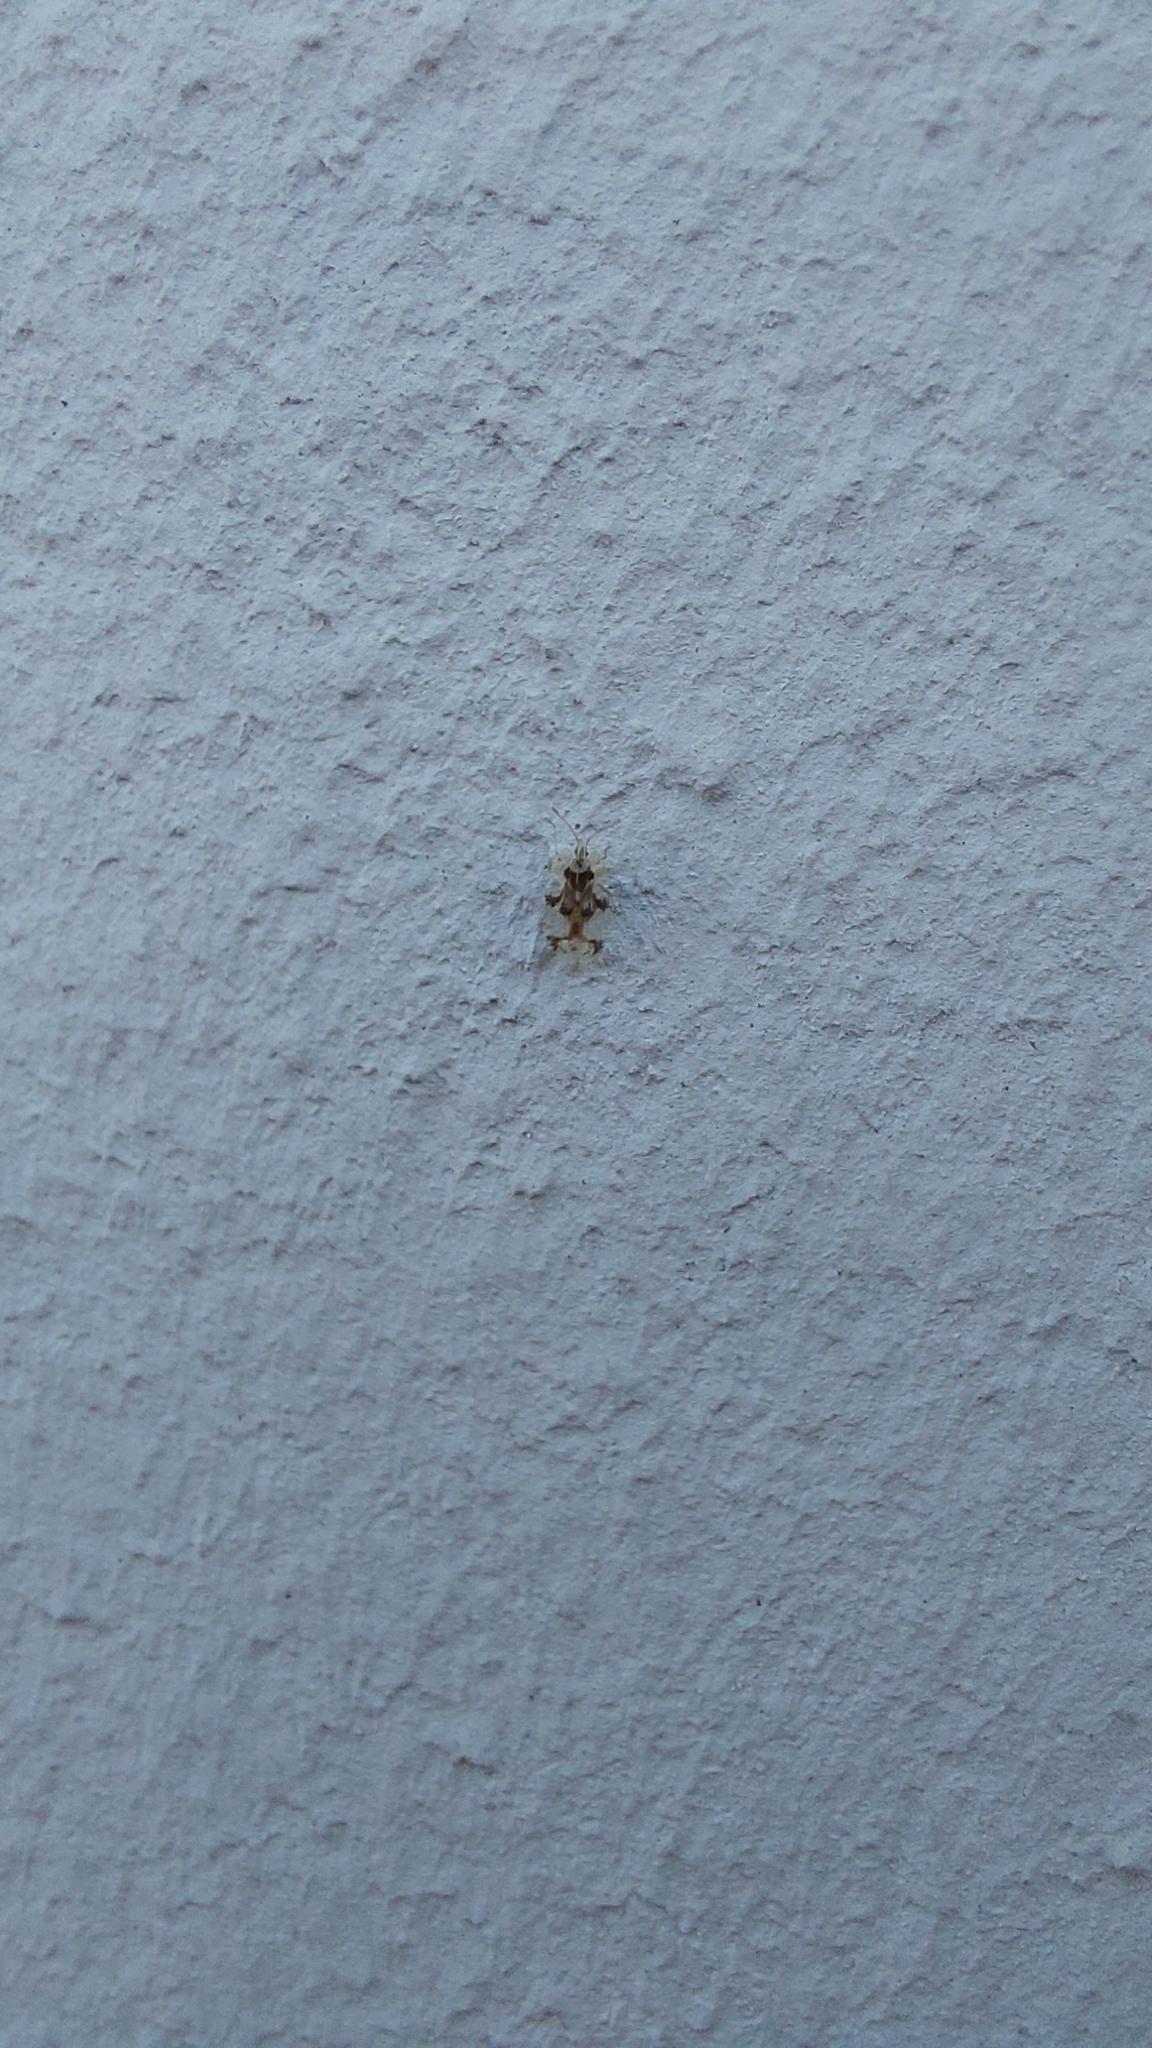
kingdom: Animalia
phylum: Arthropoda
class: Insecta
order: Hemiptera
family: Tingidae
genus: Corythucha
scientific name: Corythucha arcuata
